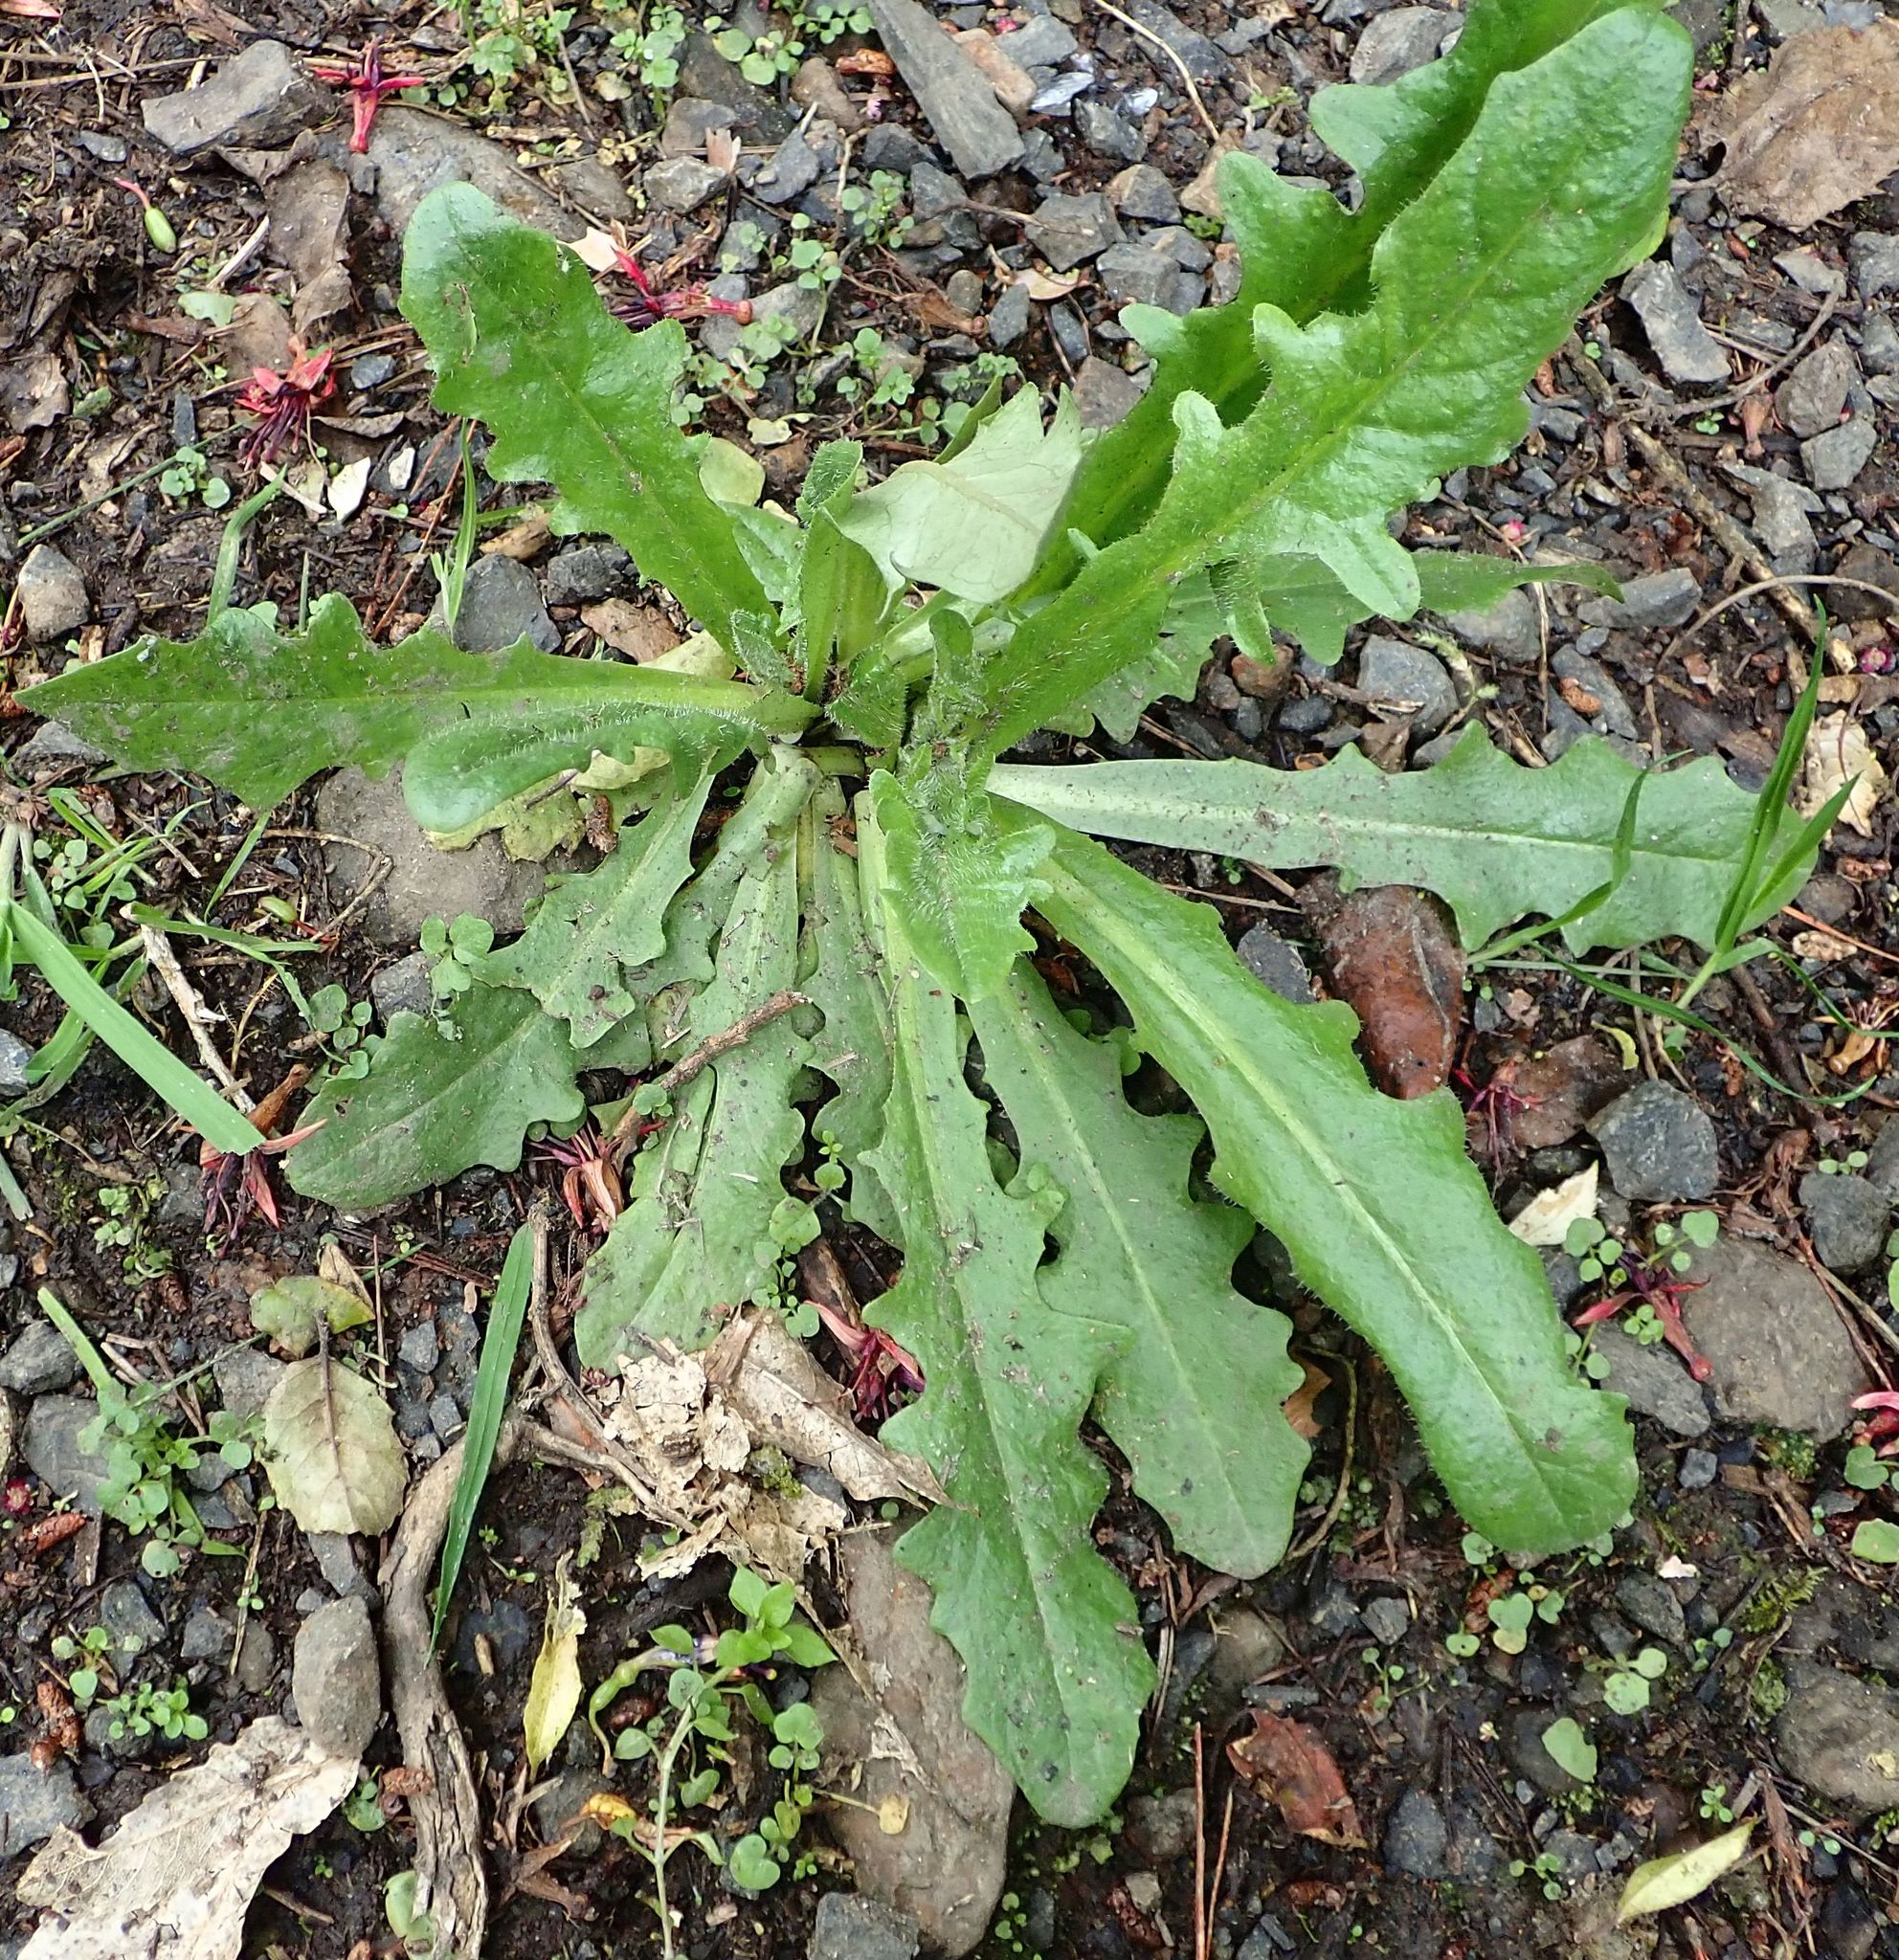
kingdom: Plantae
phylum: Tracheophyta
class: Magnoliopsida
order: Asterales
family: Asteraceae
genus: Hypochaeris
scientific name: Hypochaeris radicata
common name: Flatweed
